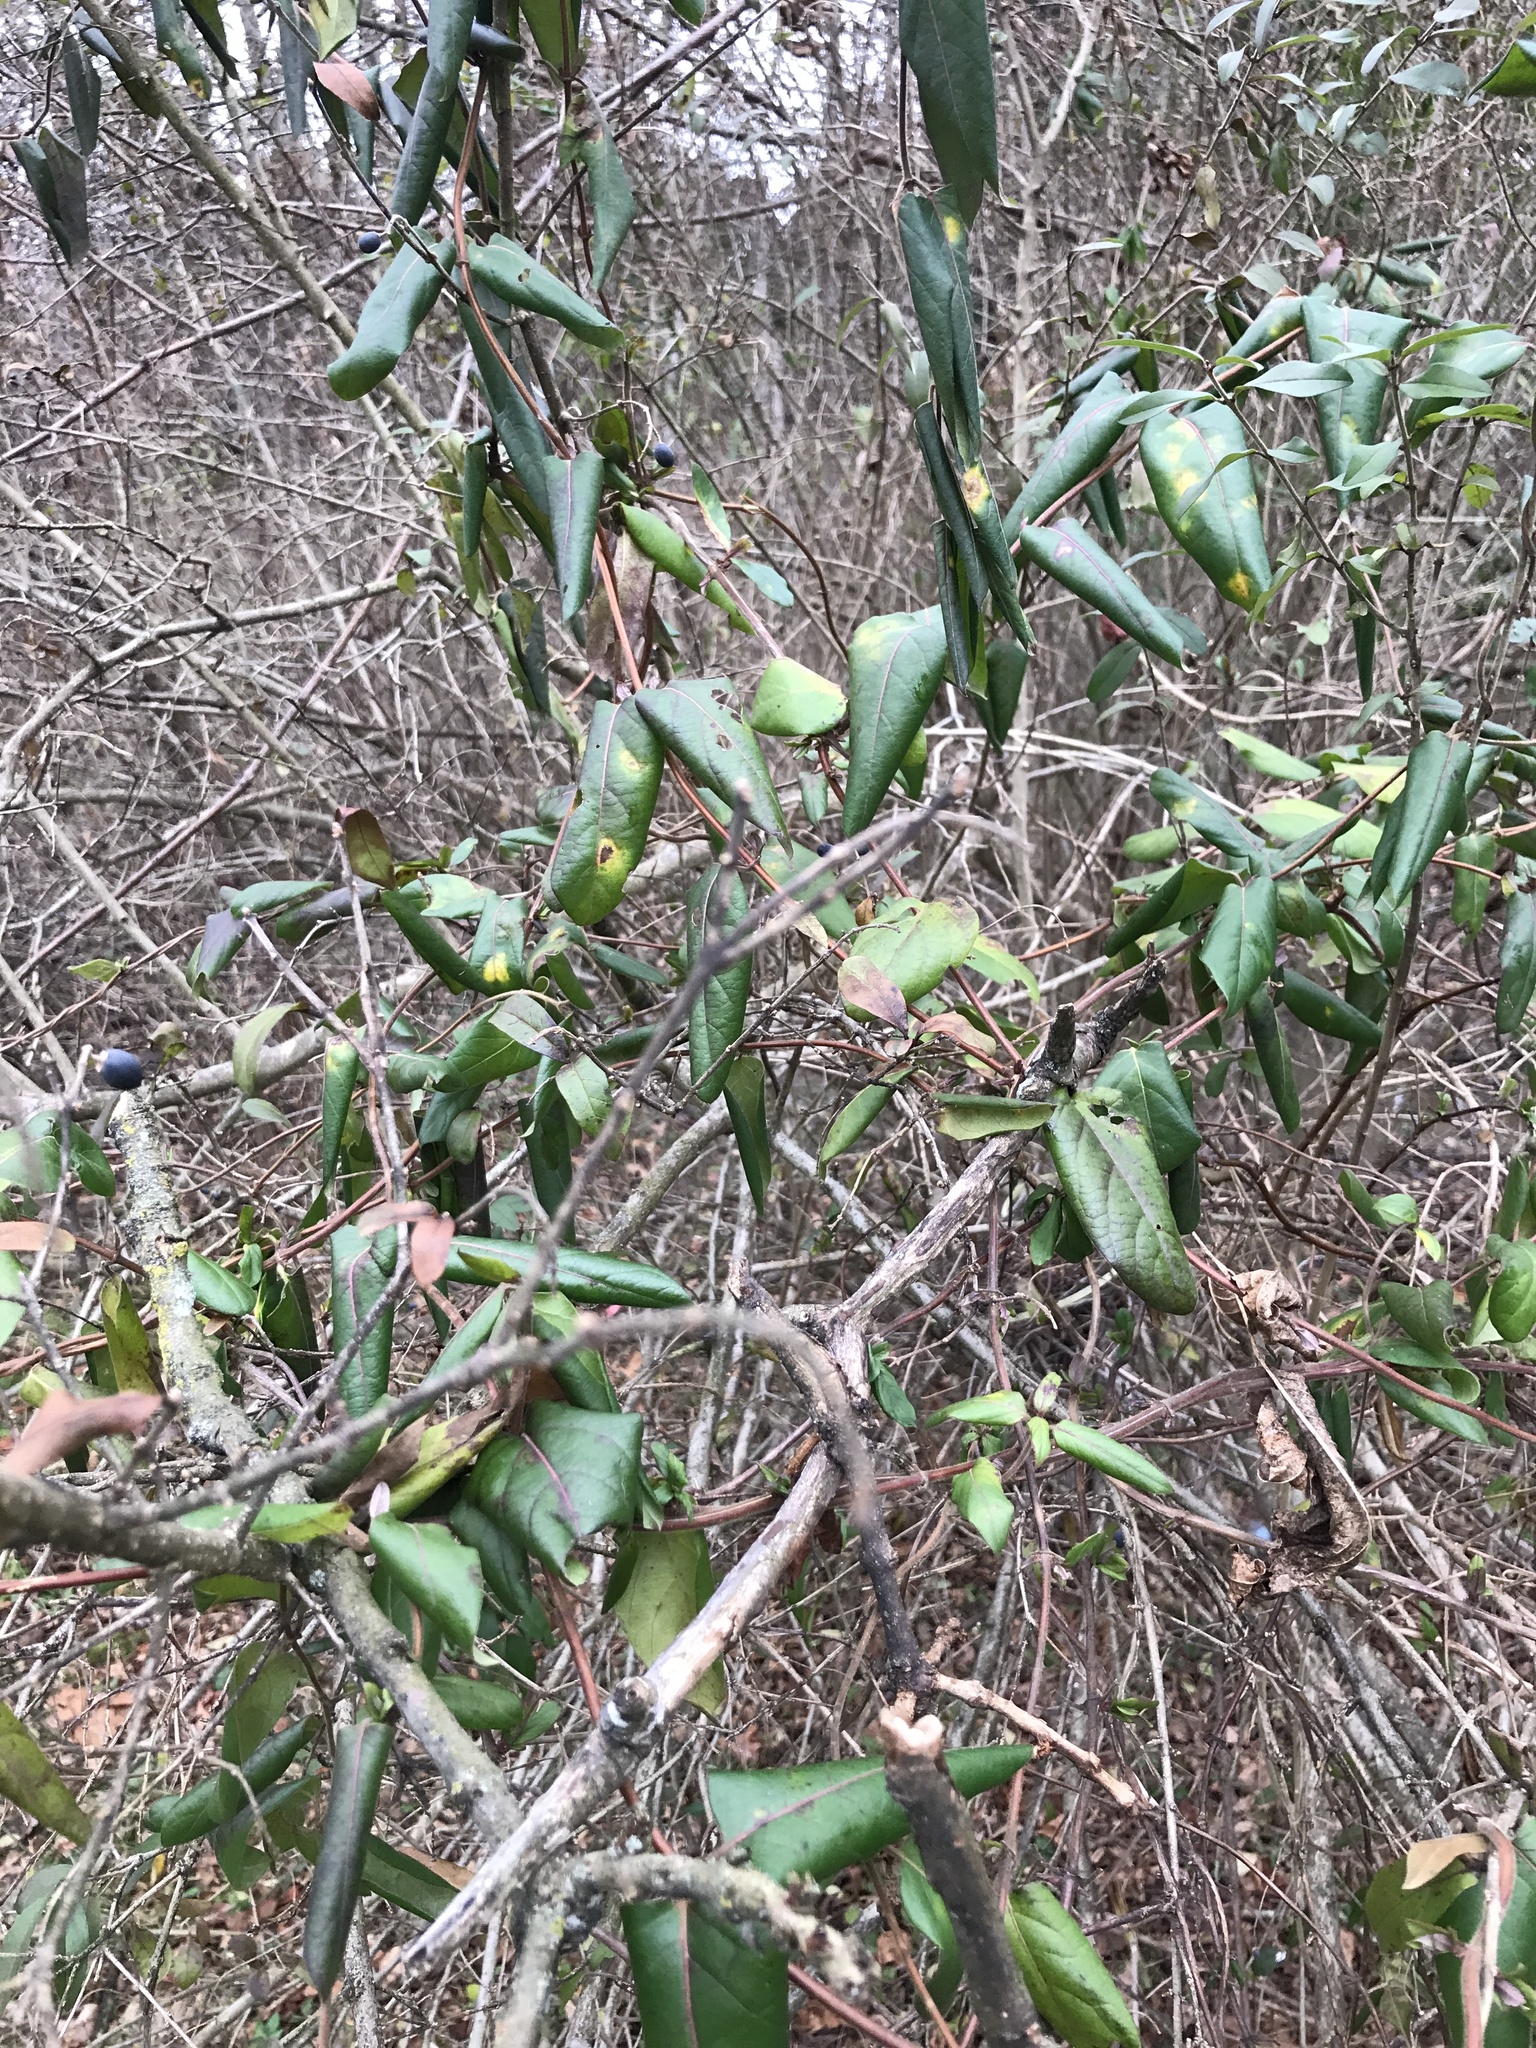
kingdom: Plantae
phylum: Tracheophyta
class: Magnoliopsida
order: Dipsacales
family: Caprifoliaceae
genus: Lonicera
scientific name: Lonicera japonica
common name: Japanese honeysuckle
